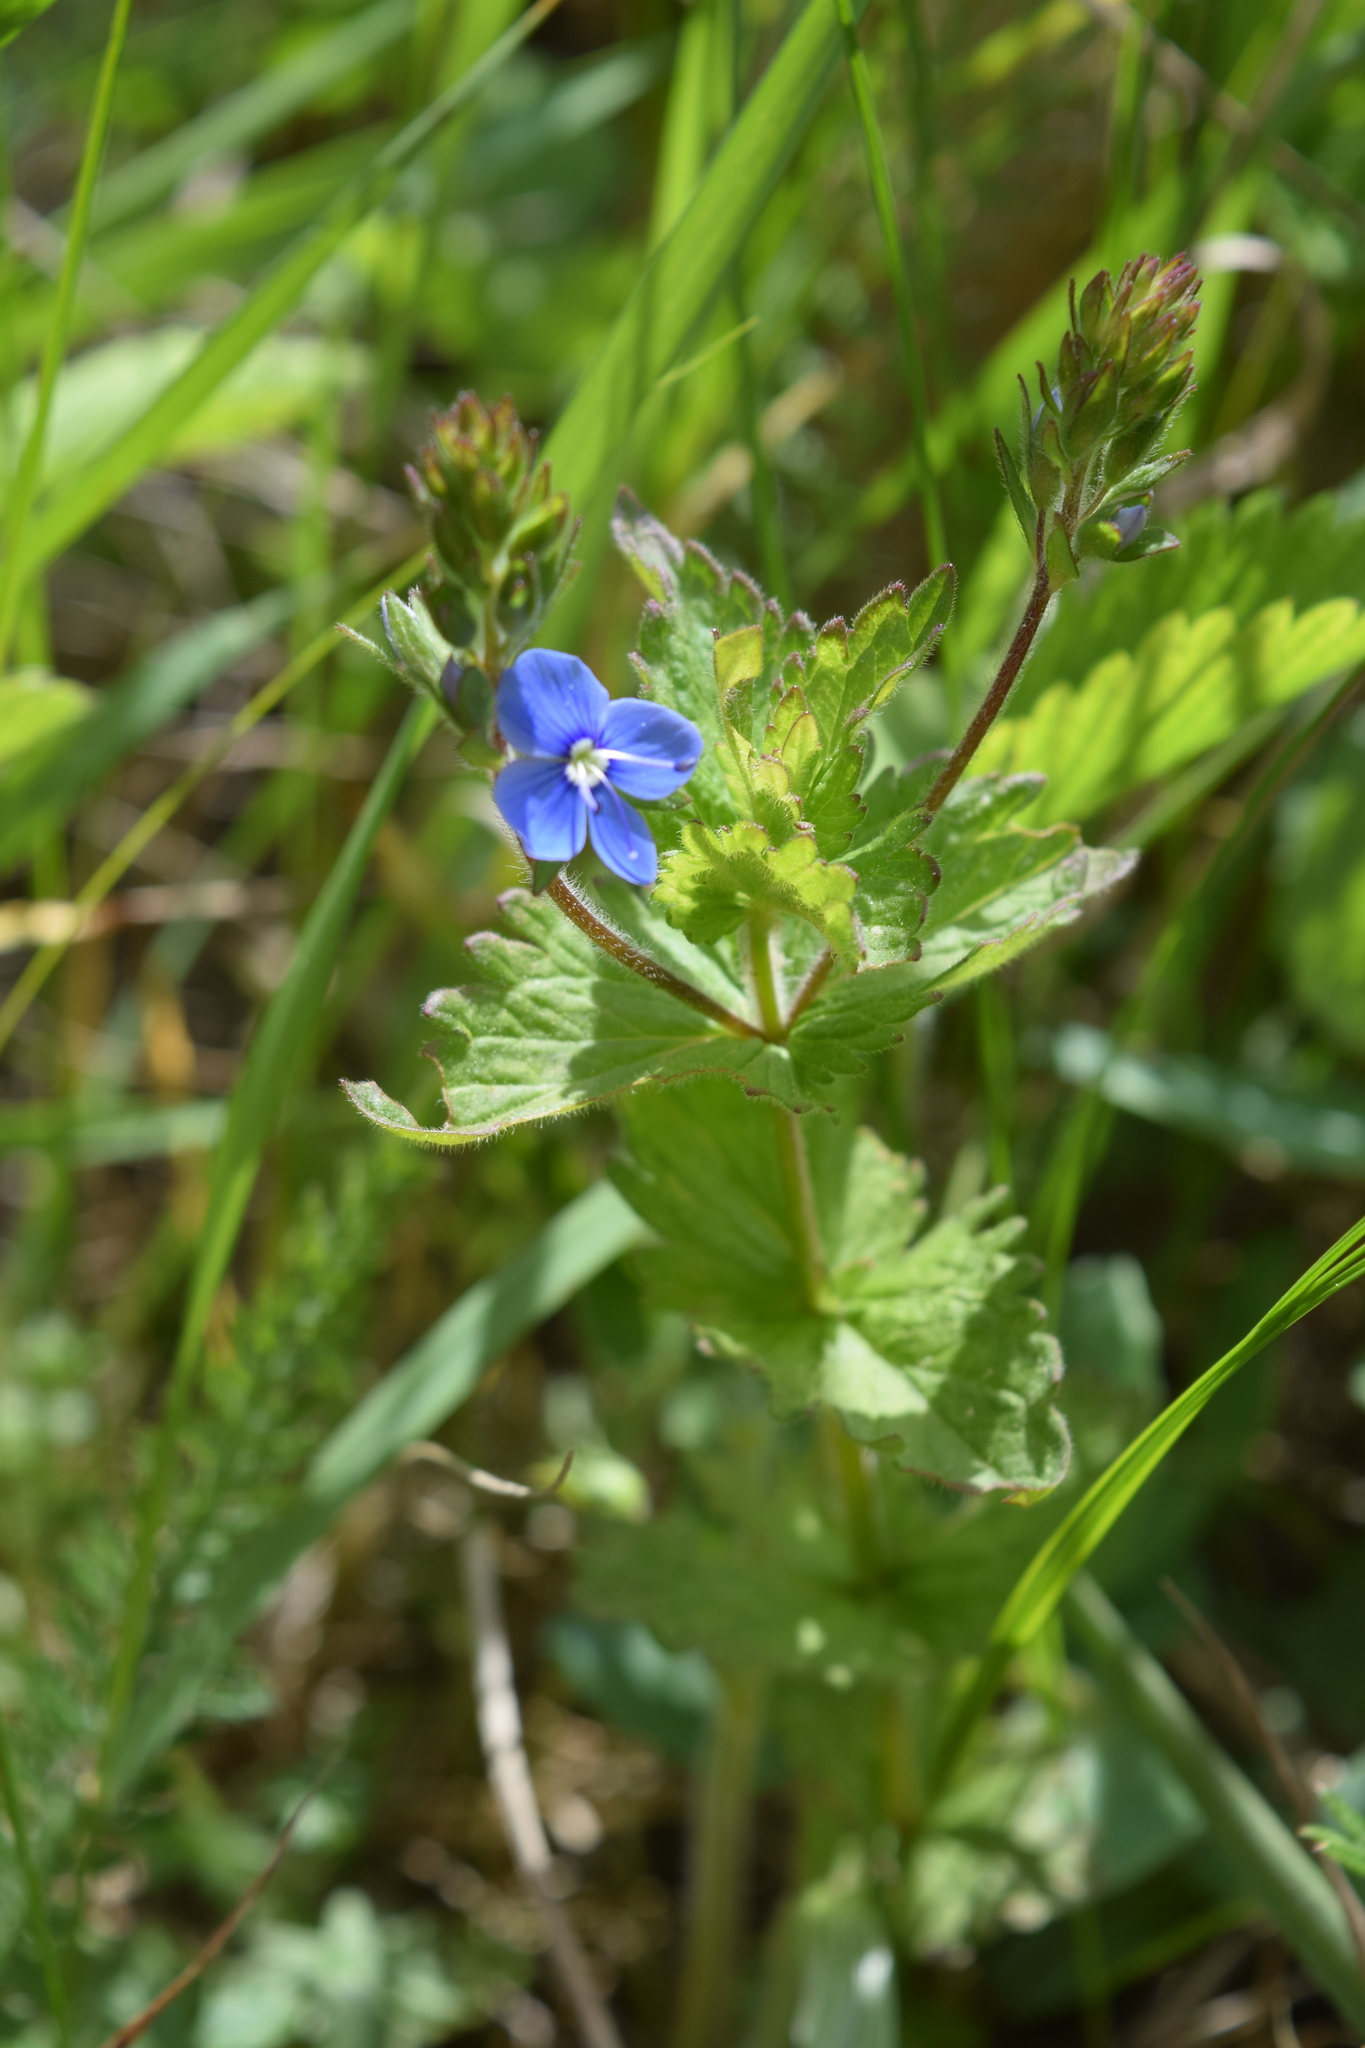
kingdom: Plantae
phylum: Tracheophyta
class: Magnoliopsida
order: Lamiales
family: Plantaginaceae
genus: Veronica
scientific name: Veronica chamaedrys
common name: Germander speedwell
